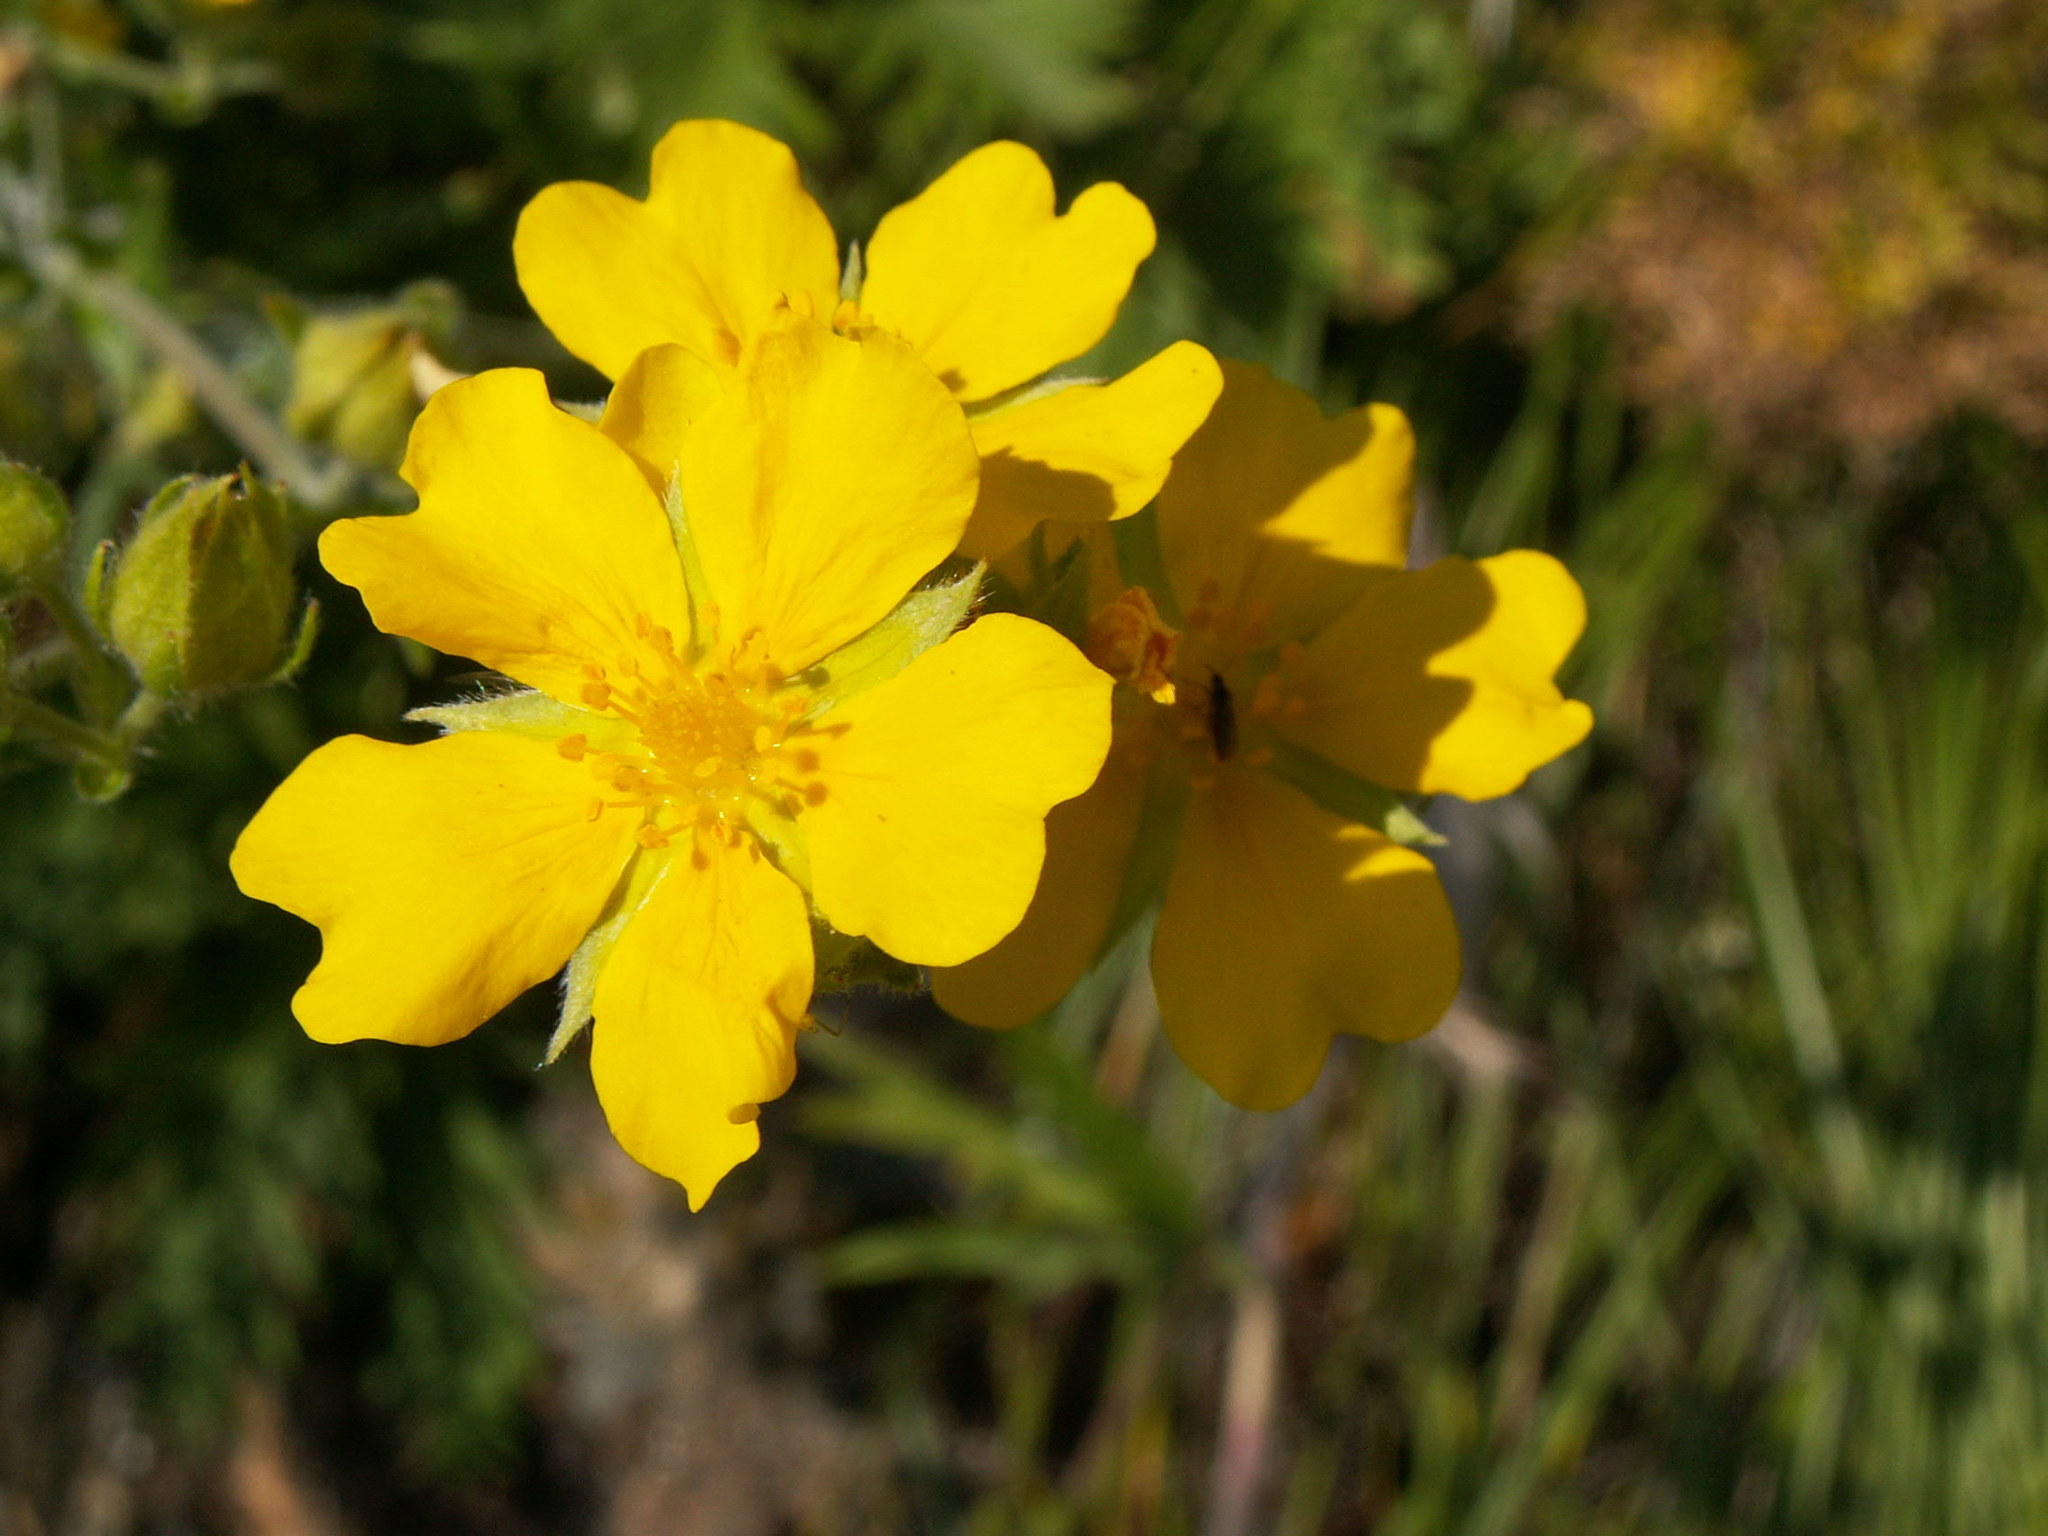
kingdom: Plantae
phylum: Tracheophyta
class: Magnoliopsida
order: Rosales
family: Rosaceae
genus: Potentilla
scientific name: Potentilla gracilis
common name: Graceful cinquefoil
